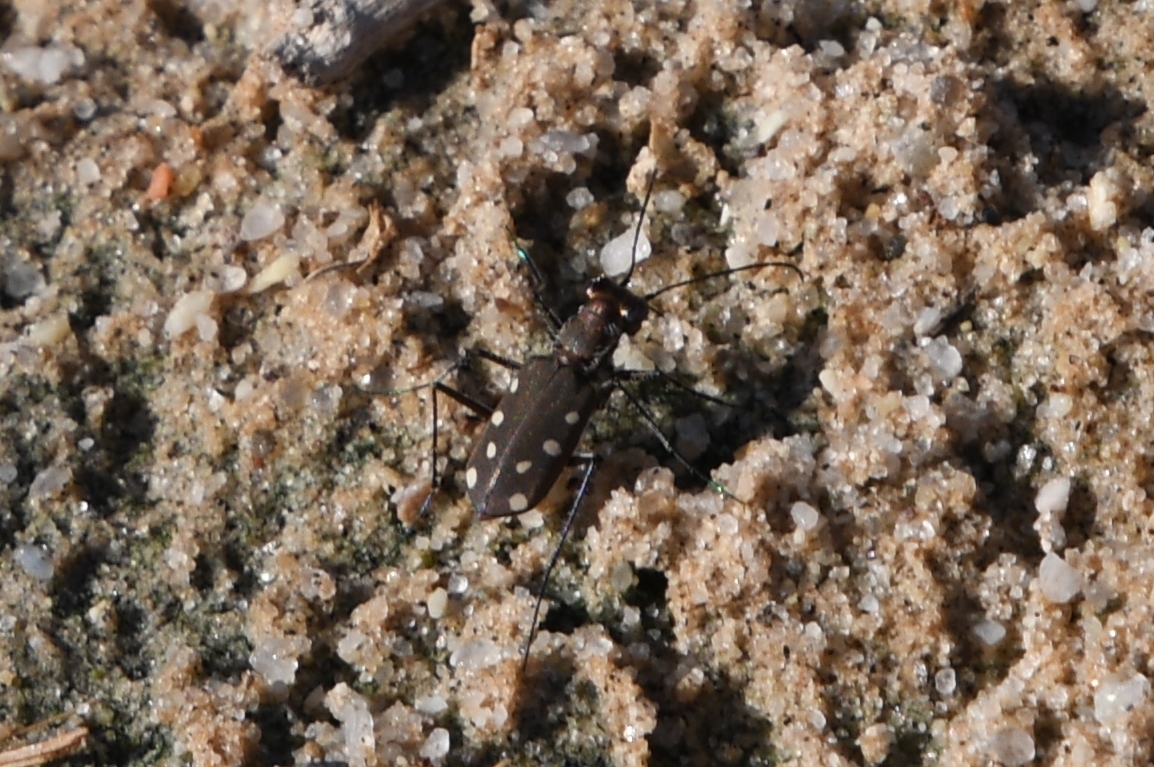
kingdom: Animalia
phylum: Arthropoda
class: Insecta
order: Coleoptera
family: Carabidae
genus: Cicindela
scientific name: Cicindela ocellata
